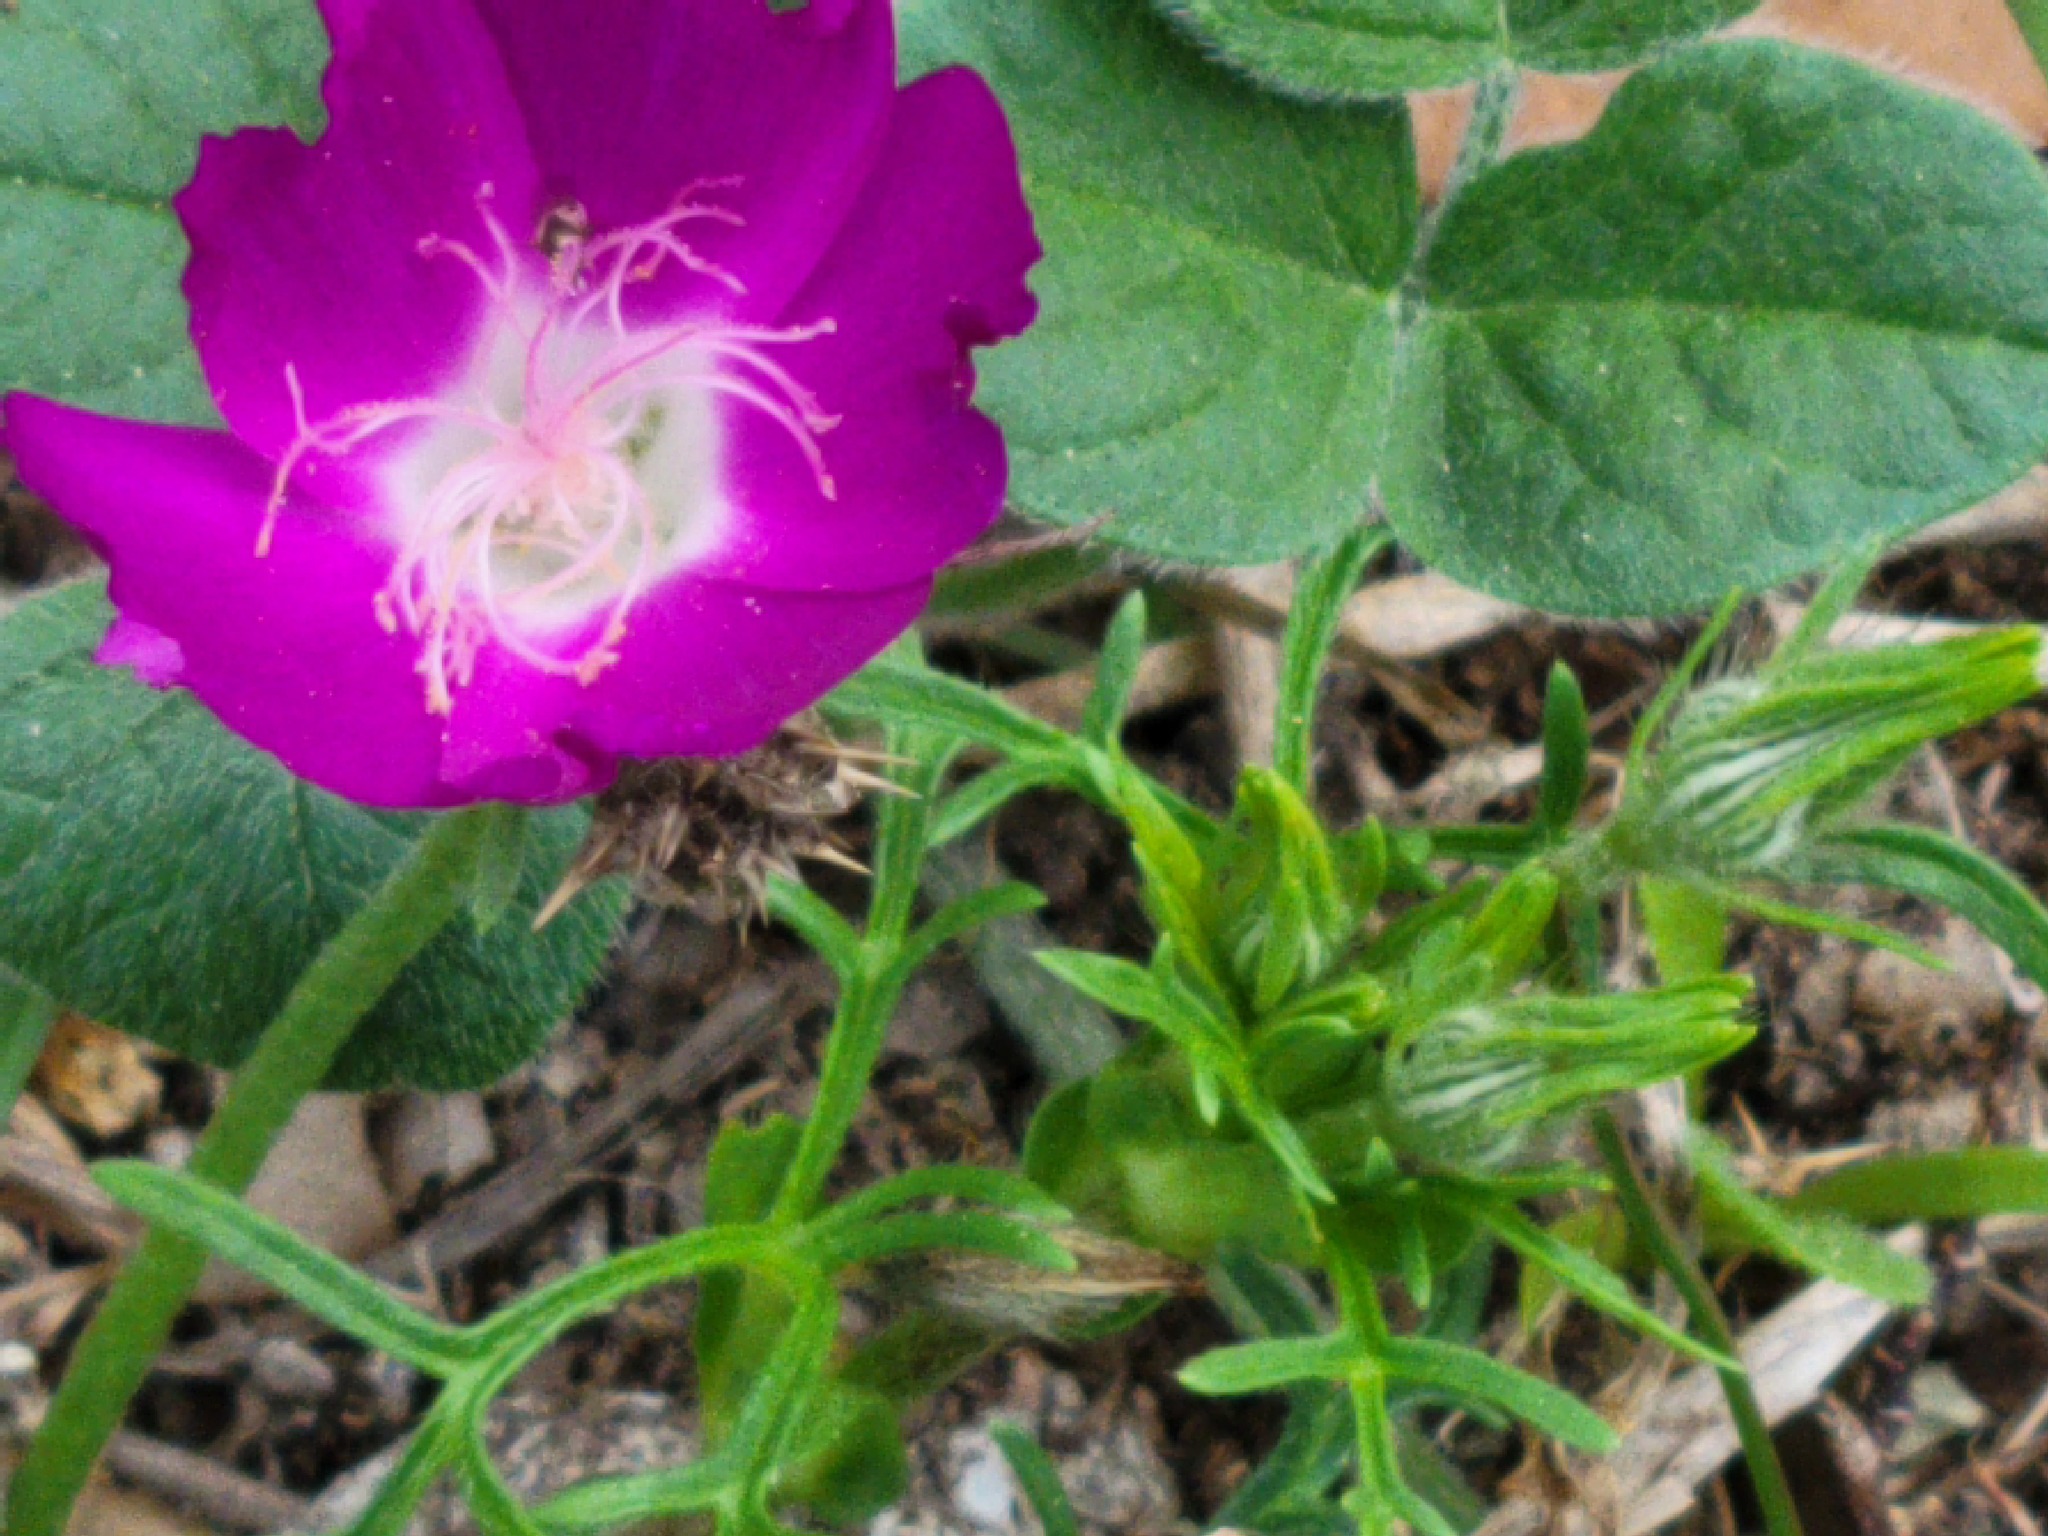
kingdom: Plantae
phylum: Tracheophyta
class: Magnoliopsida
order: Malvales
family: Malvaceae
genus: Callirhoe
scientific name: Callirhoe involucrata
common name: Purple poppy-mallow
